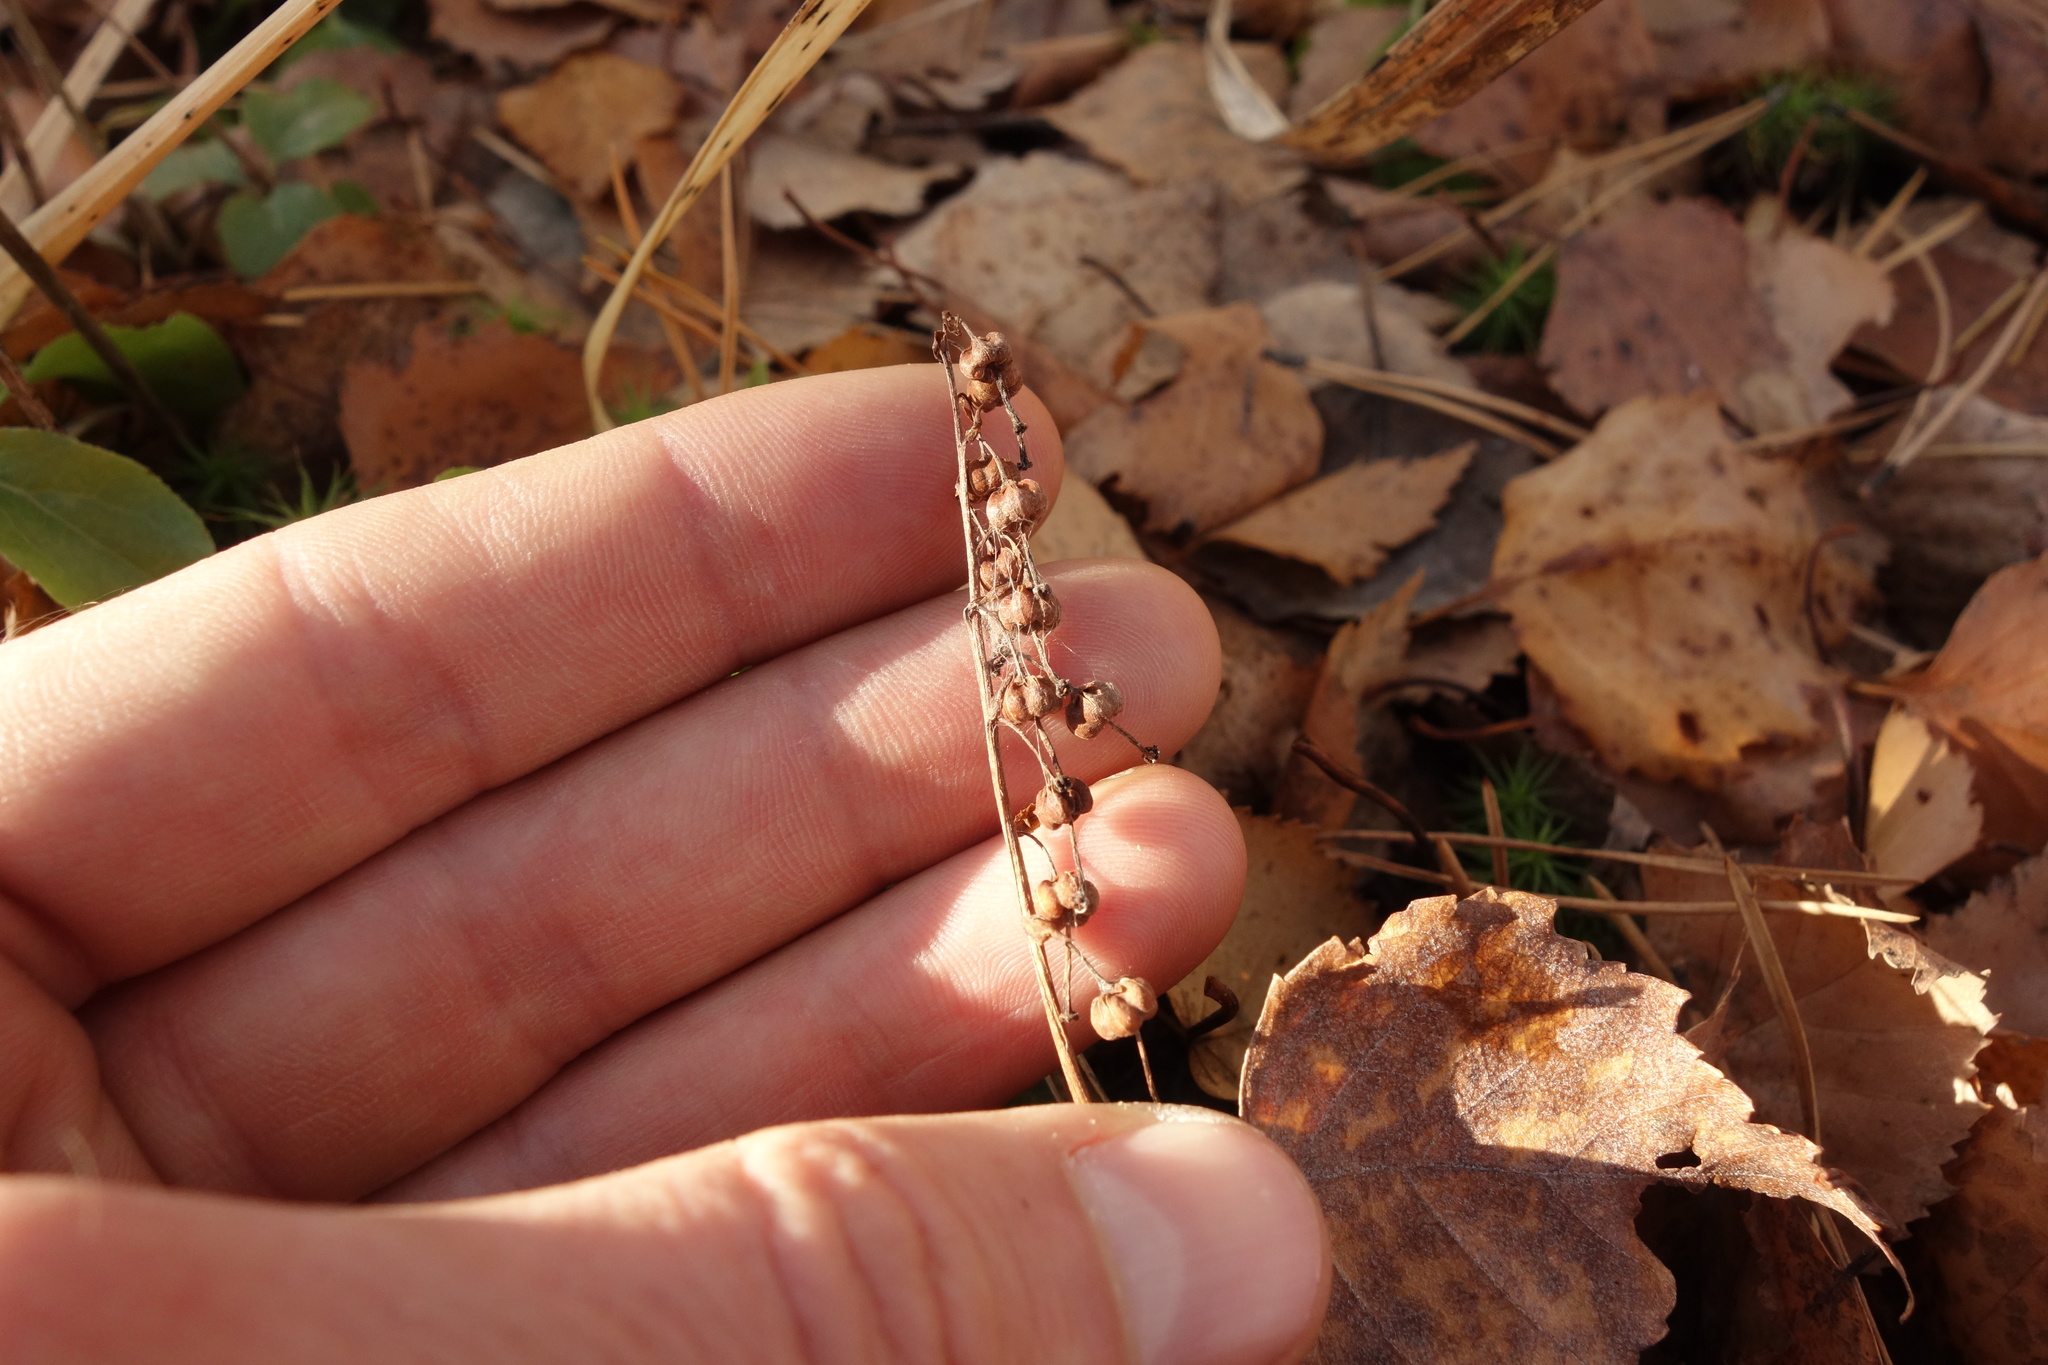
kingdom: Plantae
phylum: Tracheophyta
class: Magnoliopsida
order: Ericales
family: Ericaceae
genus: Orthilia
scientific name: Orthilia secunda
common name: One-sided orthilia
